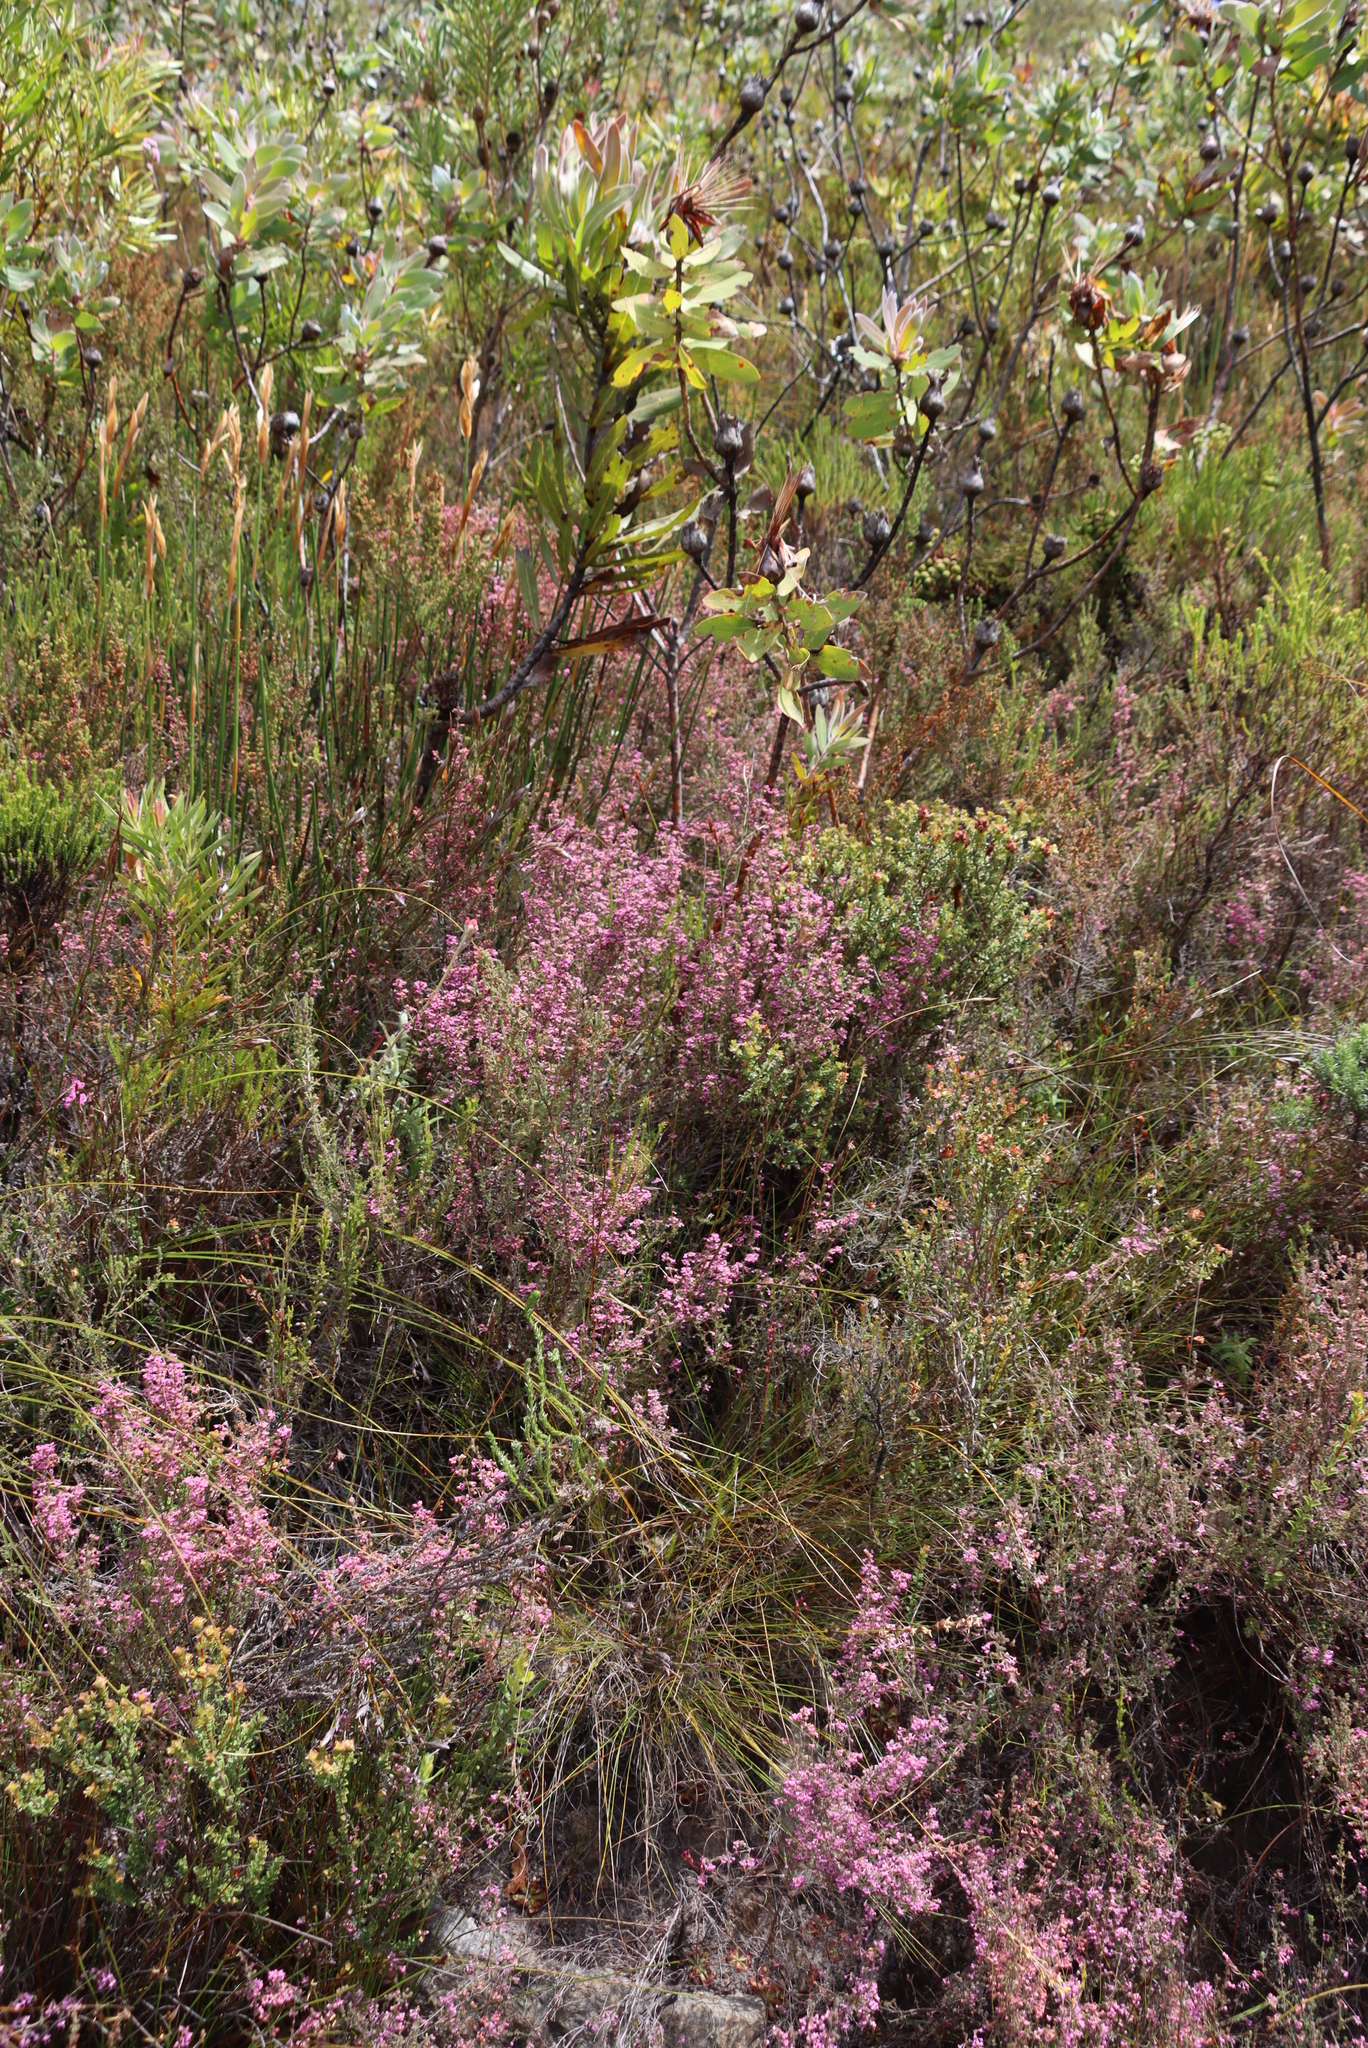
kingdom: Plantae
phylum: Tracheophyta
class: Magnoliopsida
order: Ericales
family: Ericaceae
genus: Erica
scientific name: Erica atropurpurea
